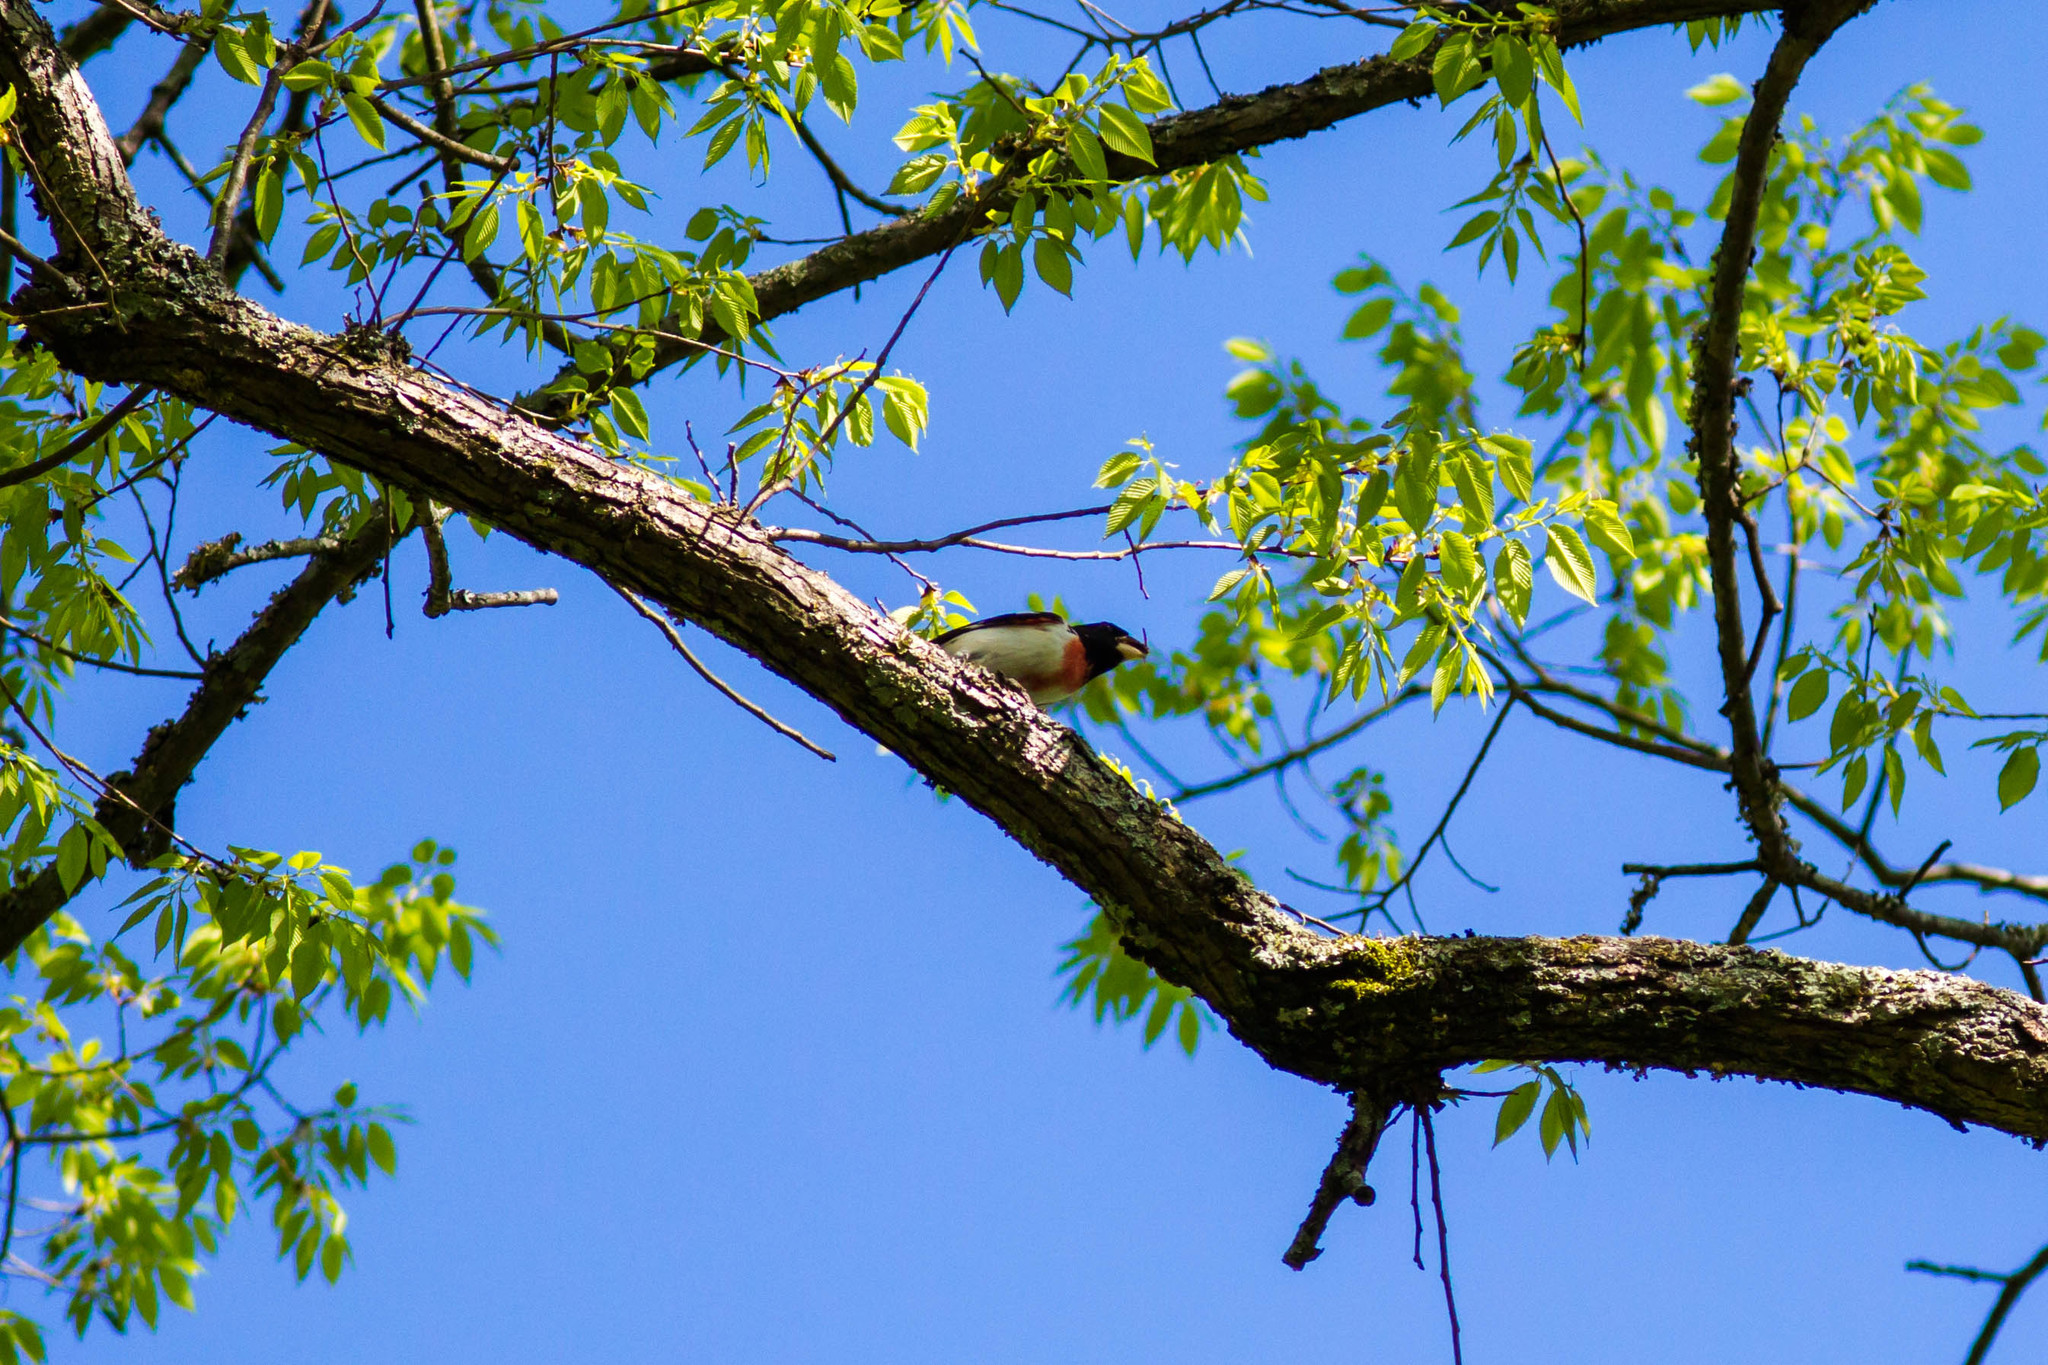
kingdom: Animalia
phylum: Chordata
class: Aves
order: Passeriformes
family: Cardinalidae
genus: Pheucticus
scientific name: Pheucticus ludovicianus
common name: Rose-breasted grosbeak
